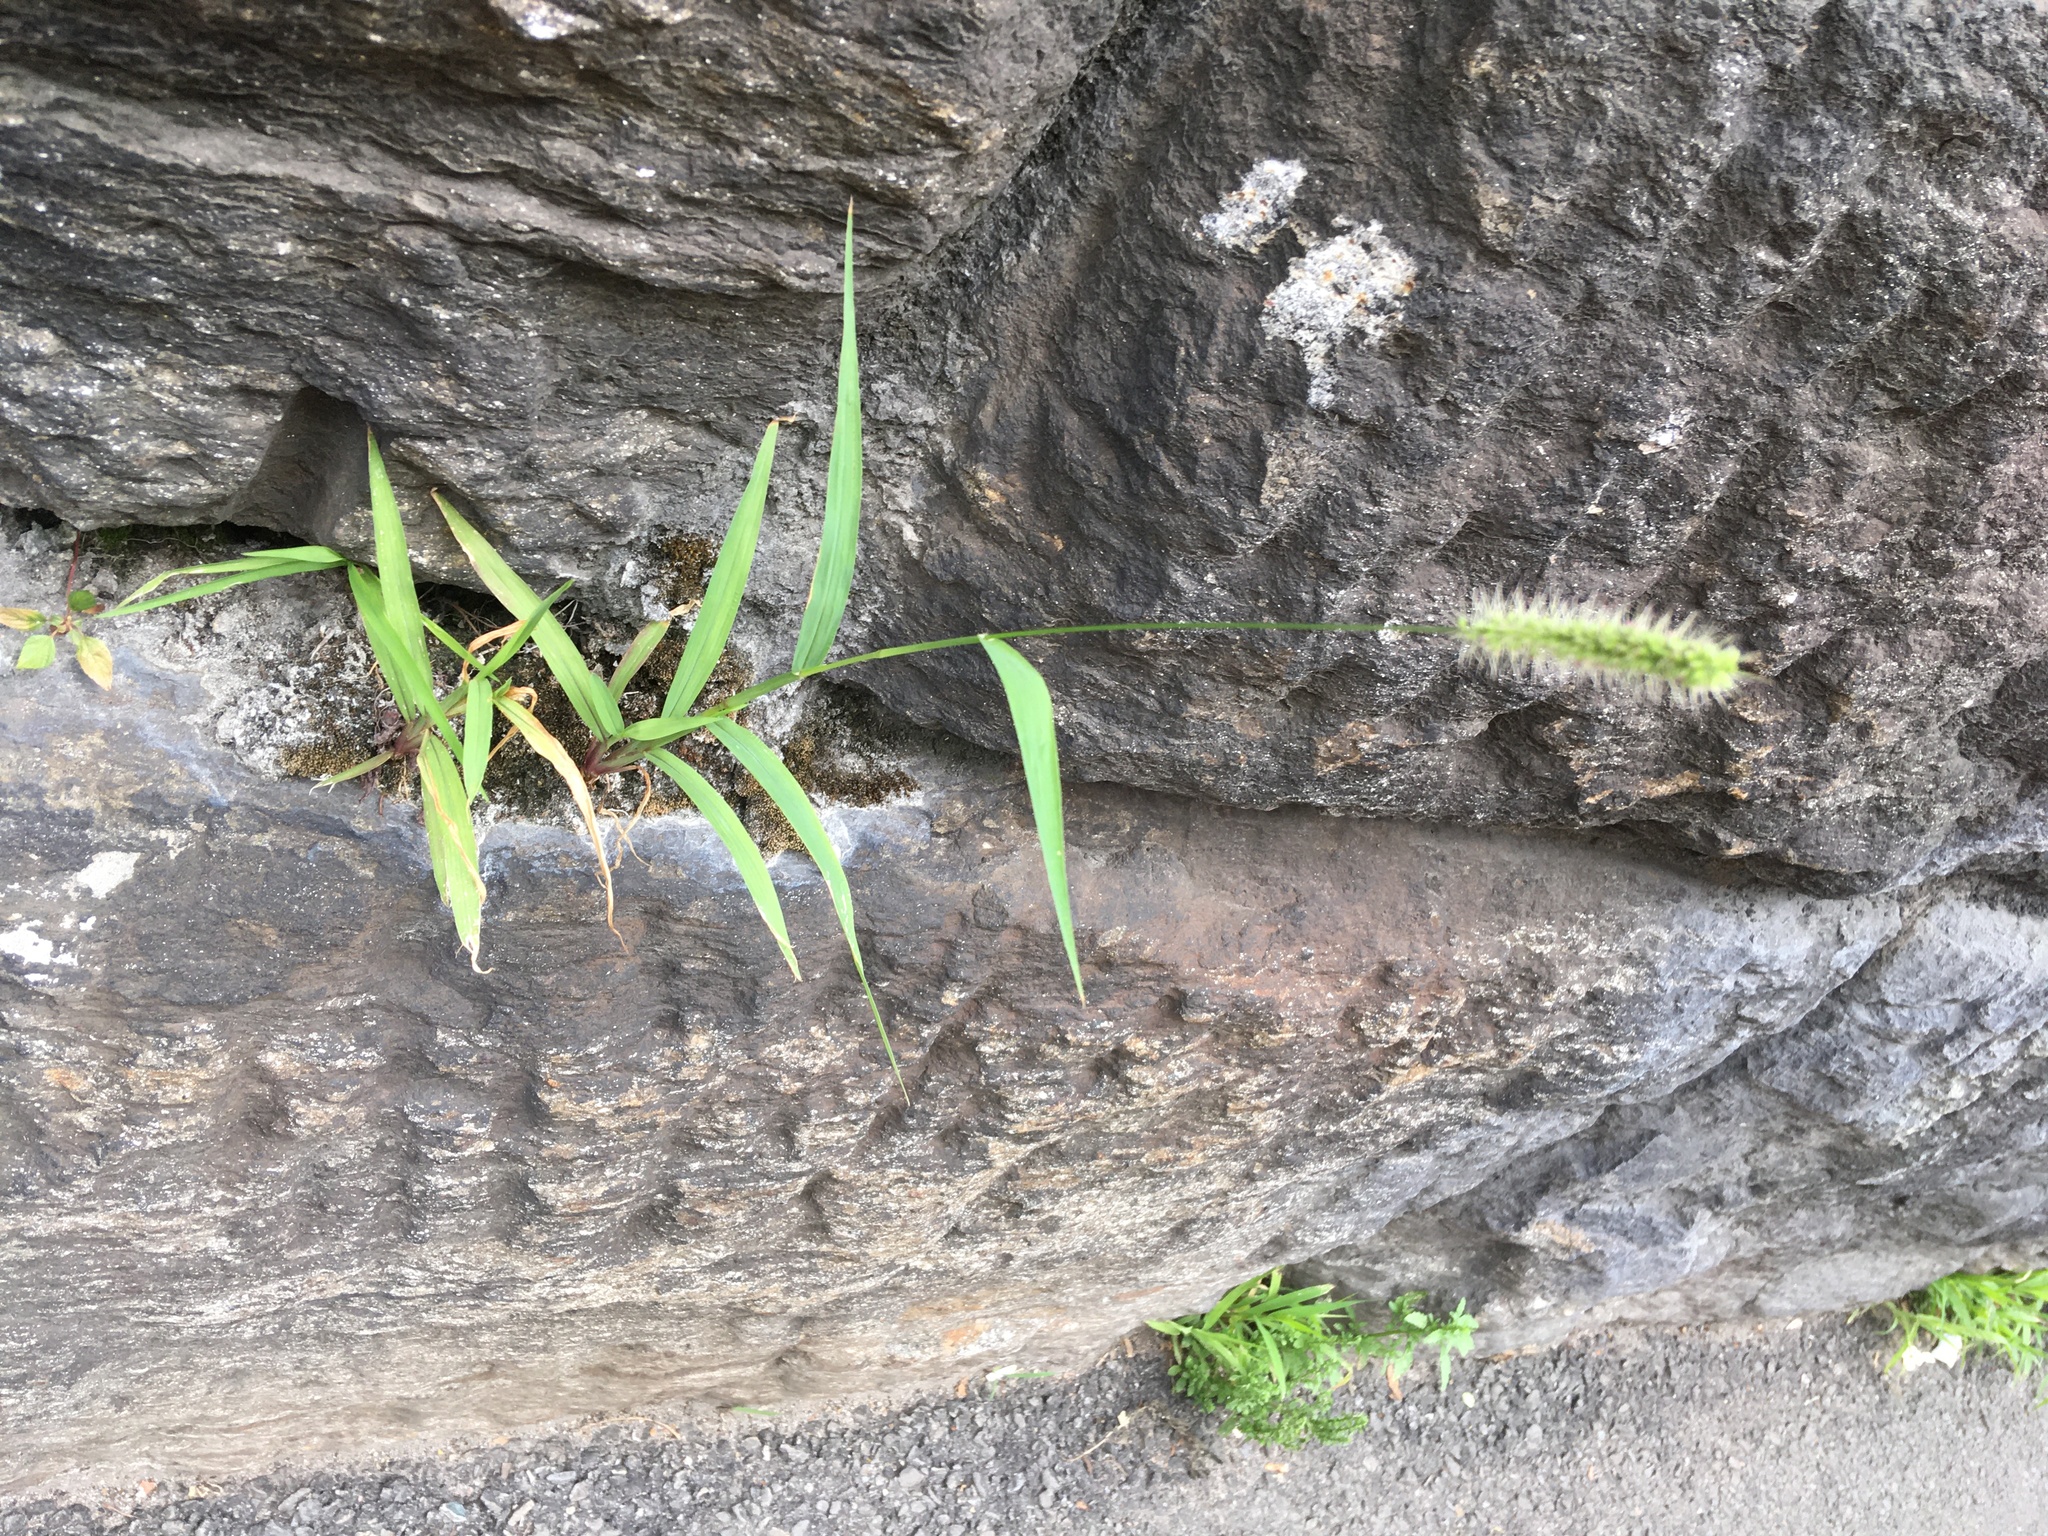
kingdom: Plantae
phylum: Tracheophyta
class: Liliopsida
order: Poales
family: Poaceae
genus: Setaria
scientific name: Setaria viridis
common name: Green bristlegrass
